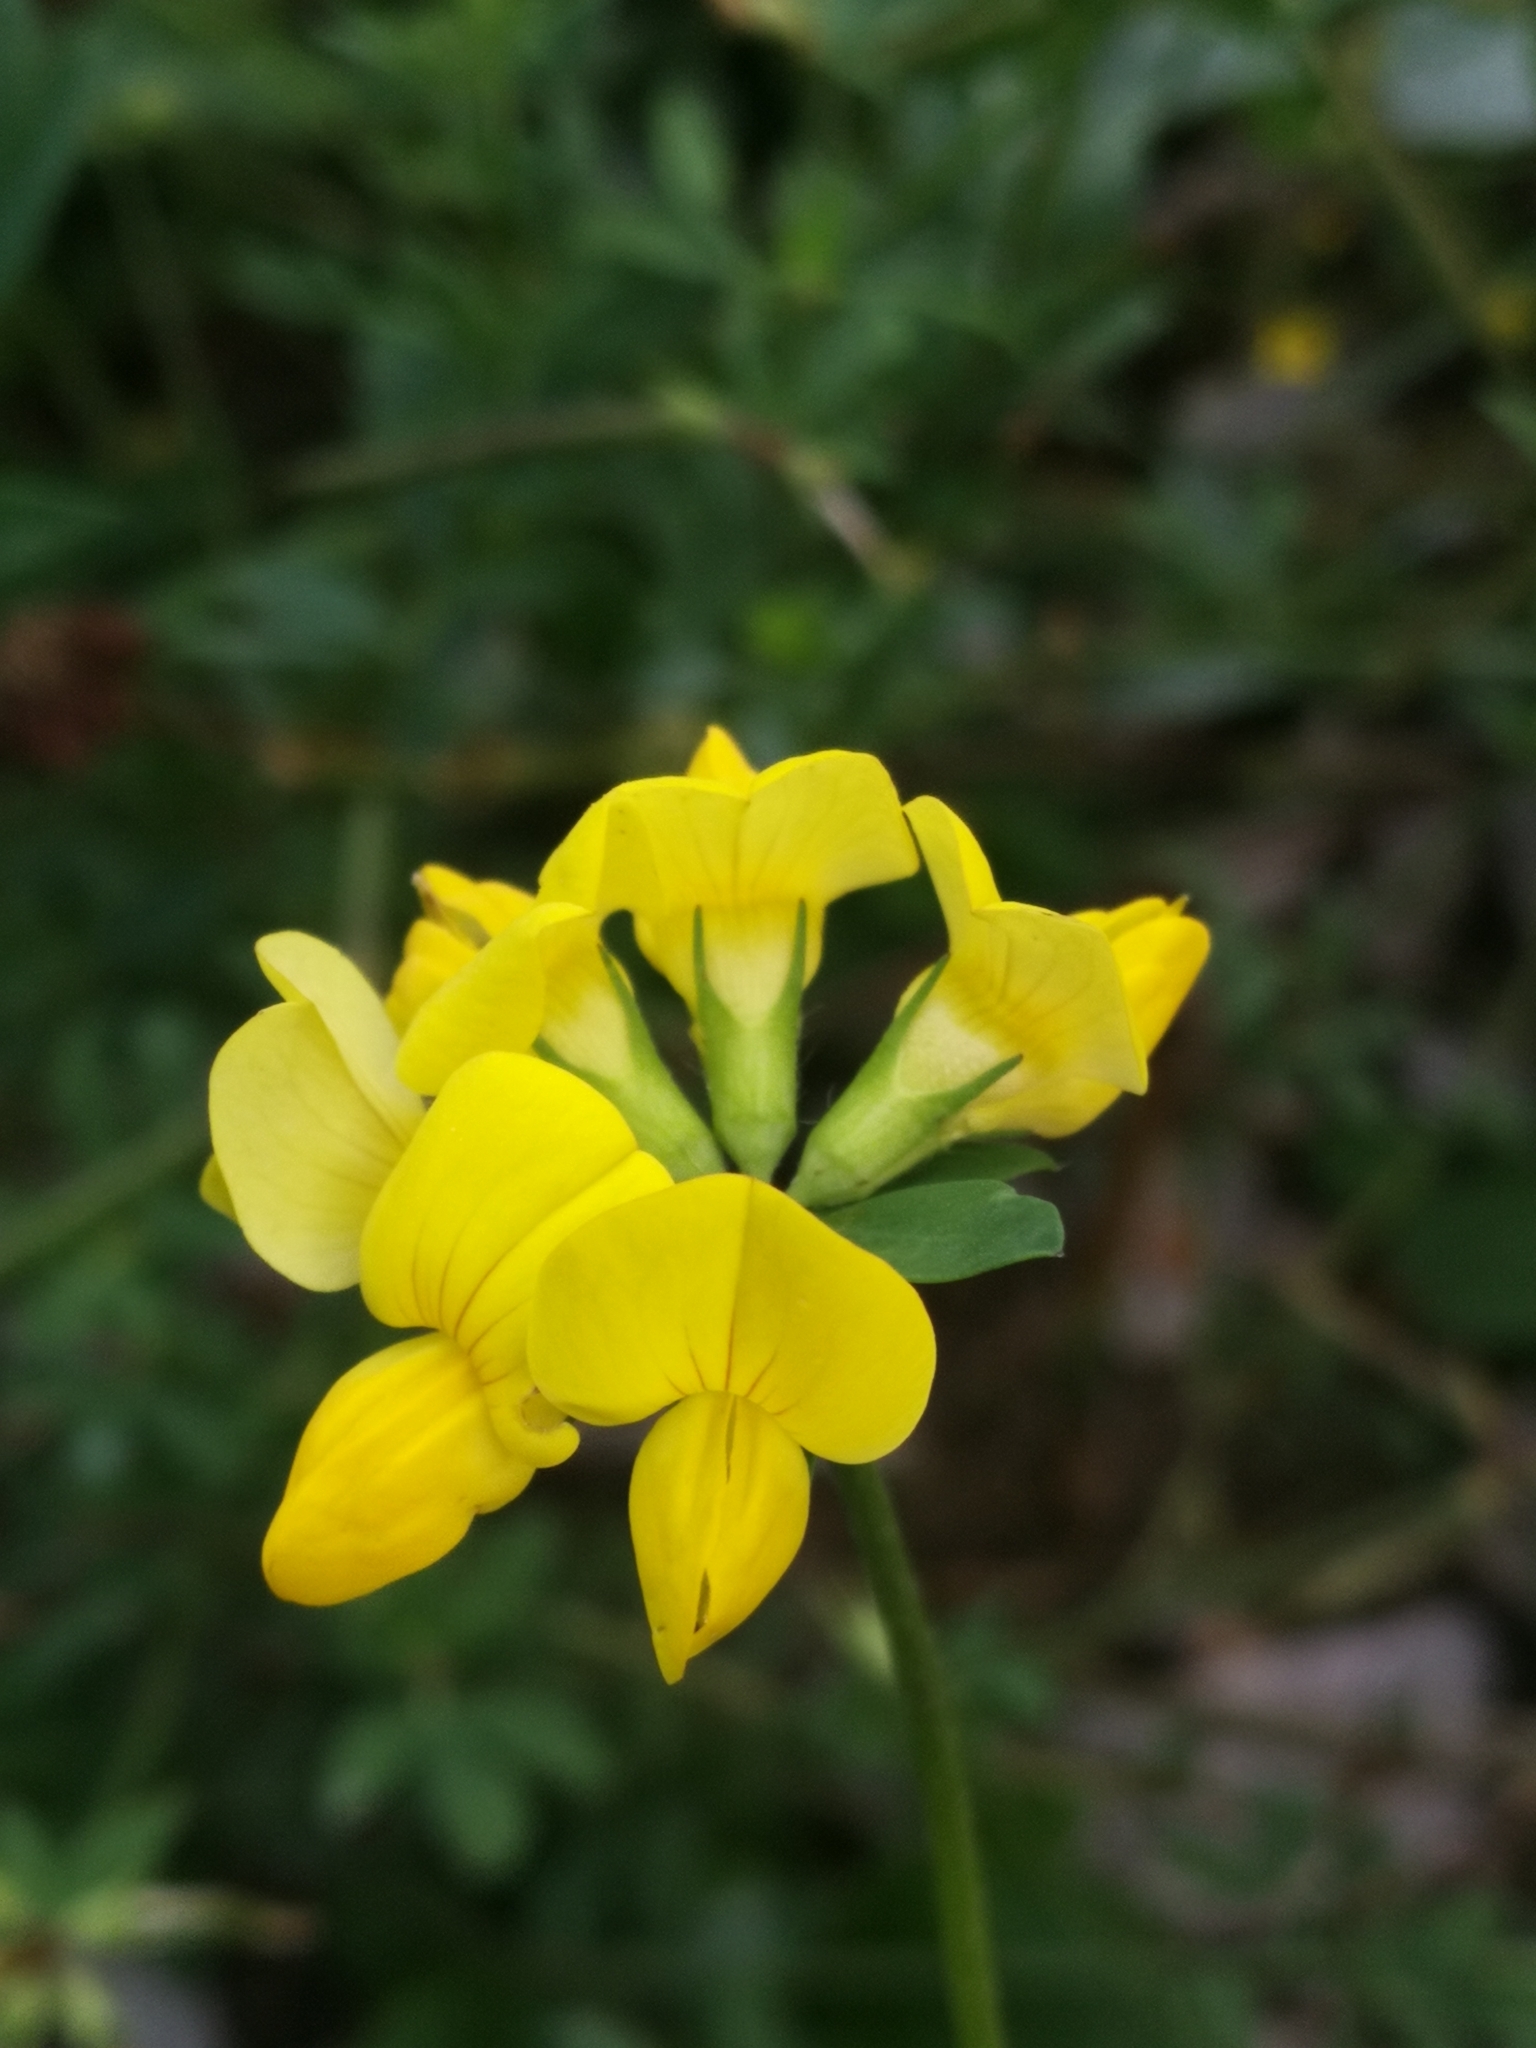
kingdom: Plantae
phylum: Tracheophyta
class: Magnoliopsida
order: Fabales
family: Fabaceae
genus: Lotus
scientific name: Lotus corniculatus
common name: Common bird's-foot-trefoil
